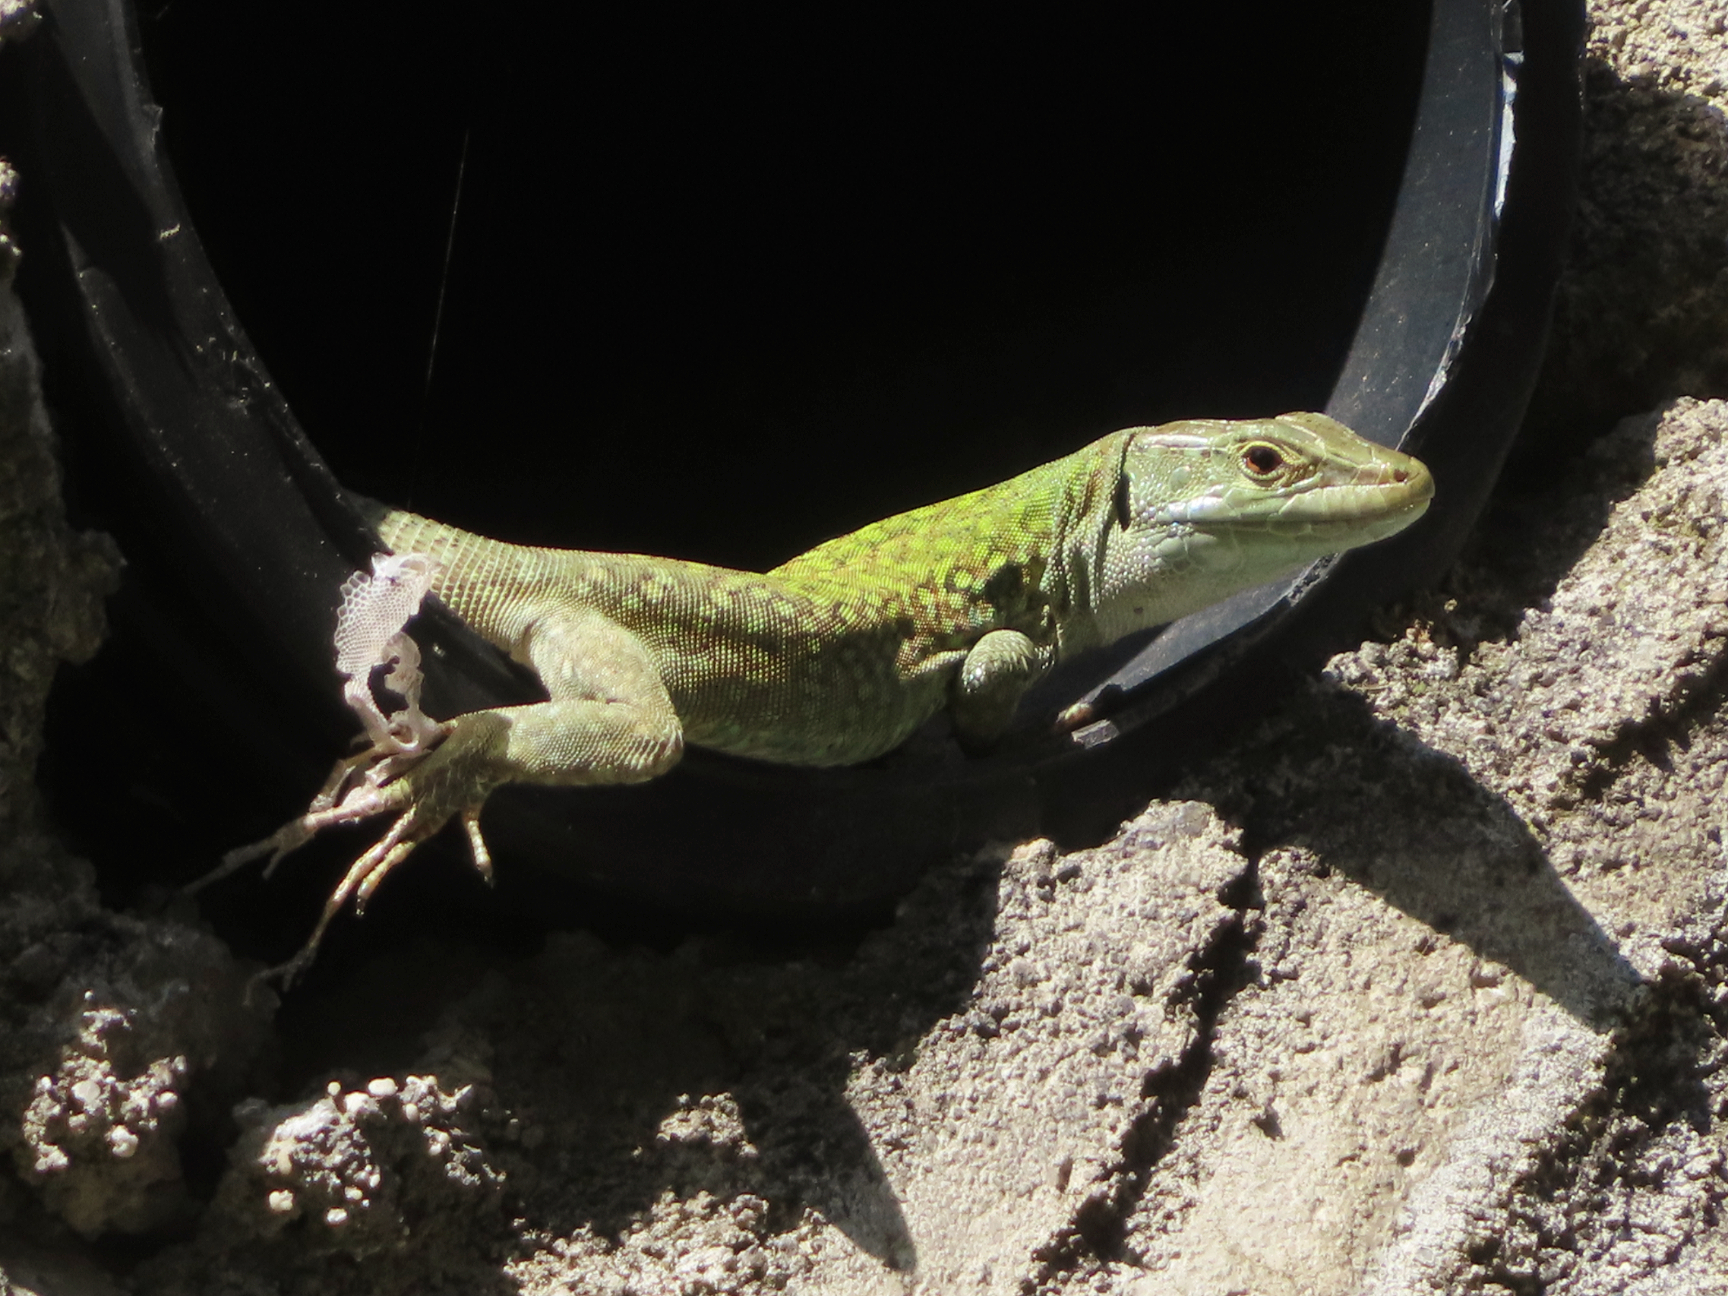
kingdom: Animalia
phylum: Chordata
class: Squamata
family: Lacertidae
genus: Podarcis
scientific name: Podarcis siculus
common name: Italian wall lizard
